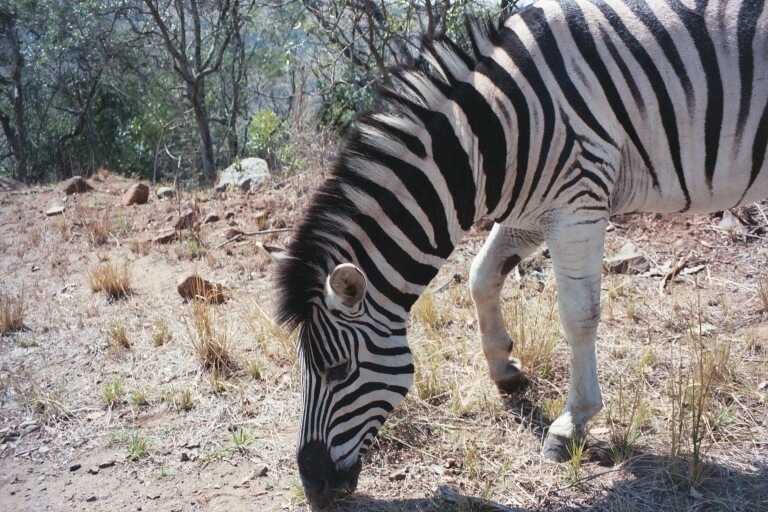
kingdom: Animalia
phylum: Chordata
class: Mammalia
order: Perissodactyla
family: Equidae
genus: Equus
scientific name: Equus quagga
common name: Plains zebra
